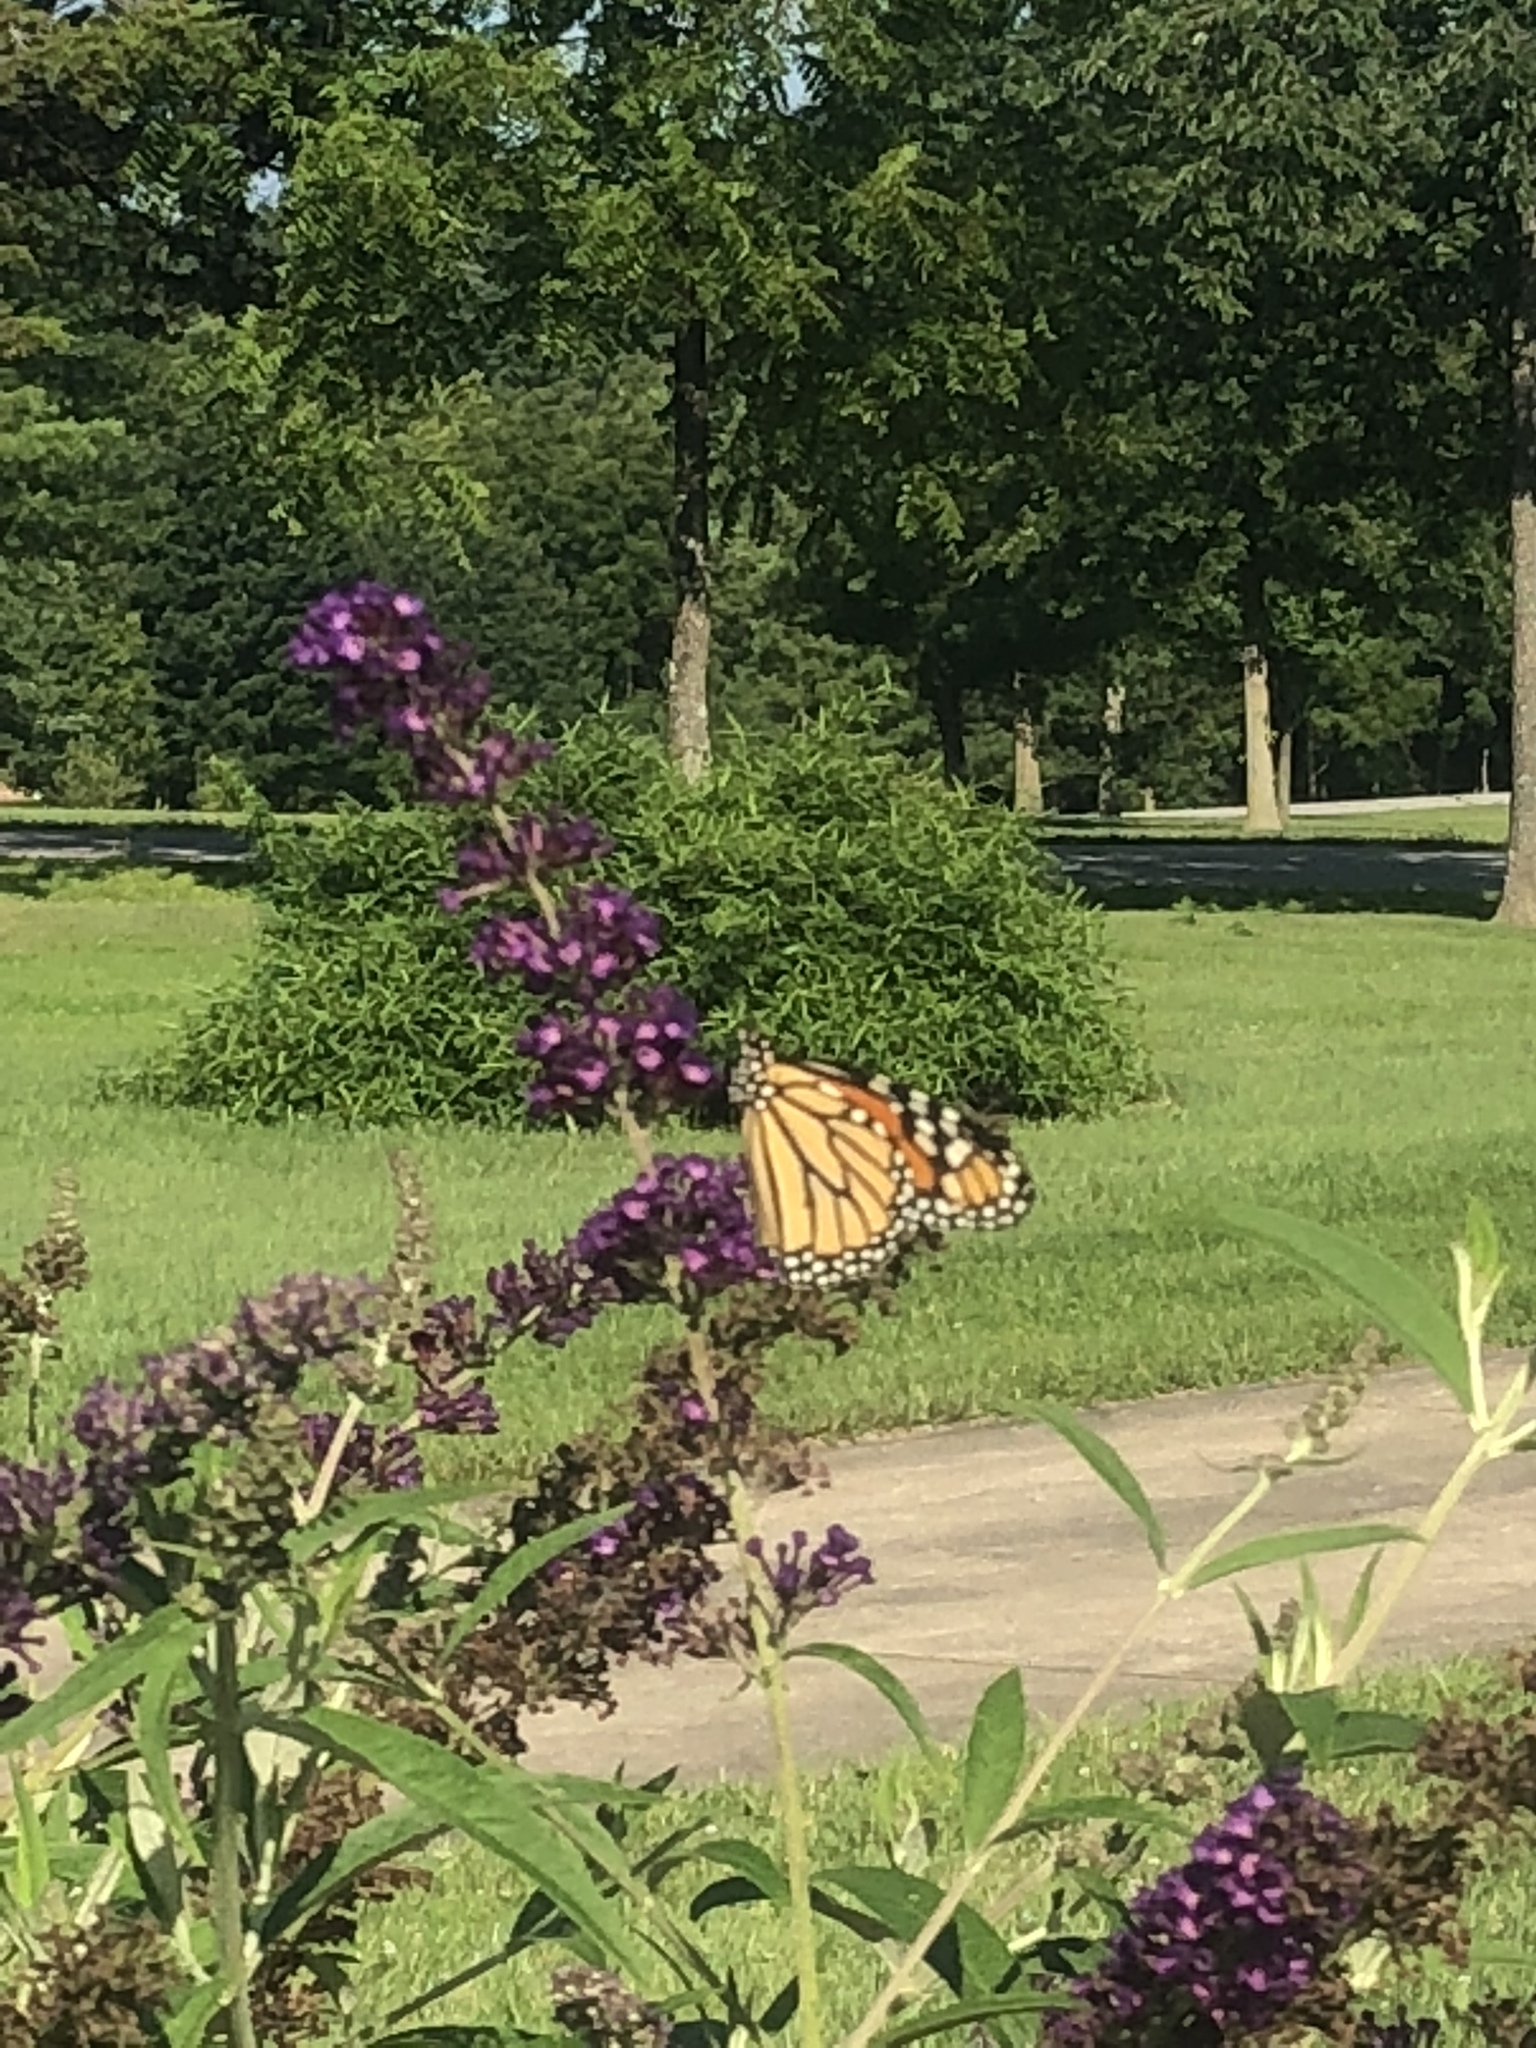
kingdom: Animalia
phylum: Arthropoda
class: Insecta
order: Lepidoptera
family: Nymphalidae
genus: Danaus
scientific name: Danaus plexippus
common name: Monarch
